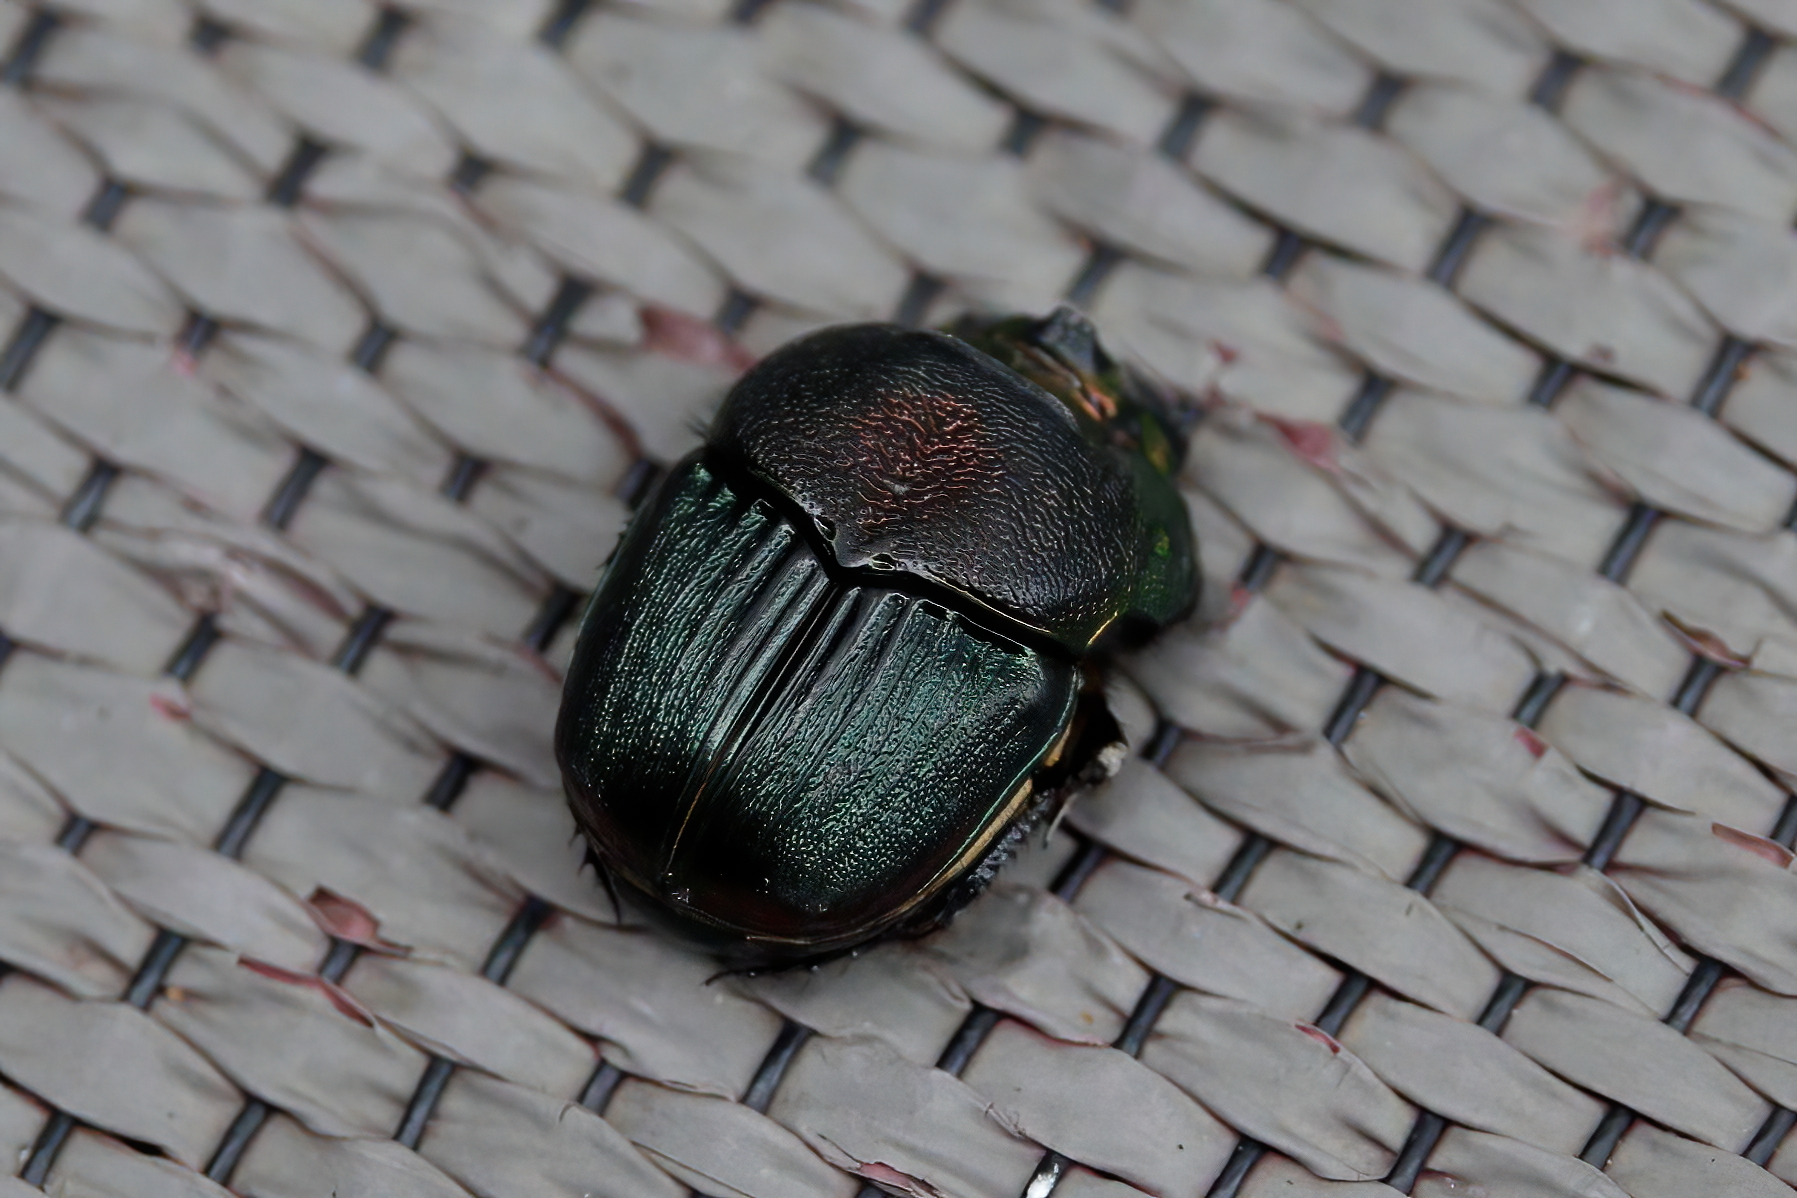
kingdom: Animalia
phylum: Arthropoda
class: Insecta
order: Coleoptera
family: Scarabaeidae
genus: Phanaeus
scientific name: Phanaeus vindex
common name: Rainbow scarab
